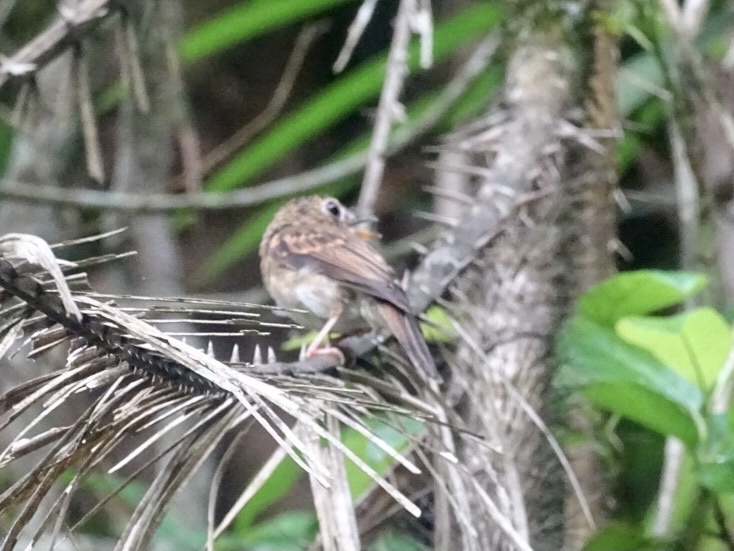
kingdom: Animalia
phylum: Chordata
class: Aves
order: Passeriformes
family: Muscicapidae
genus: Muscicapa
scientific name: Muscicapa muttui
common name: Brown-breasted flycatcher
